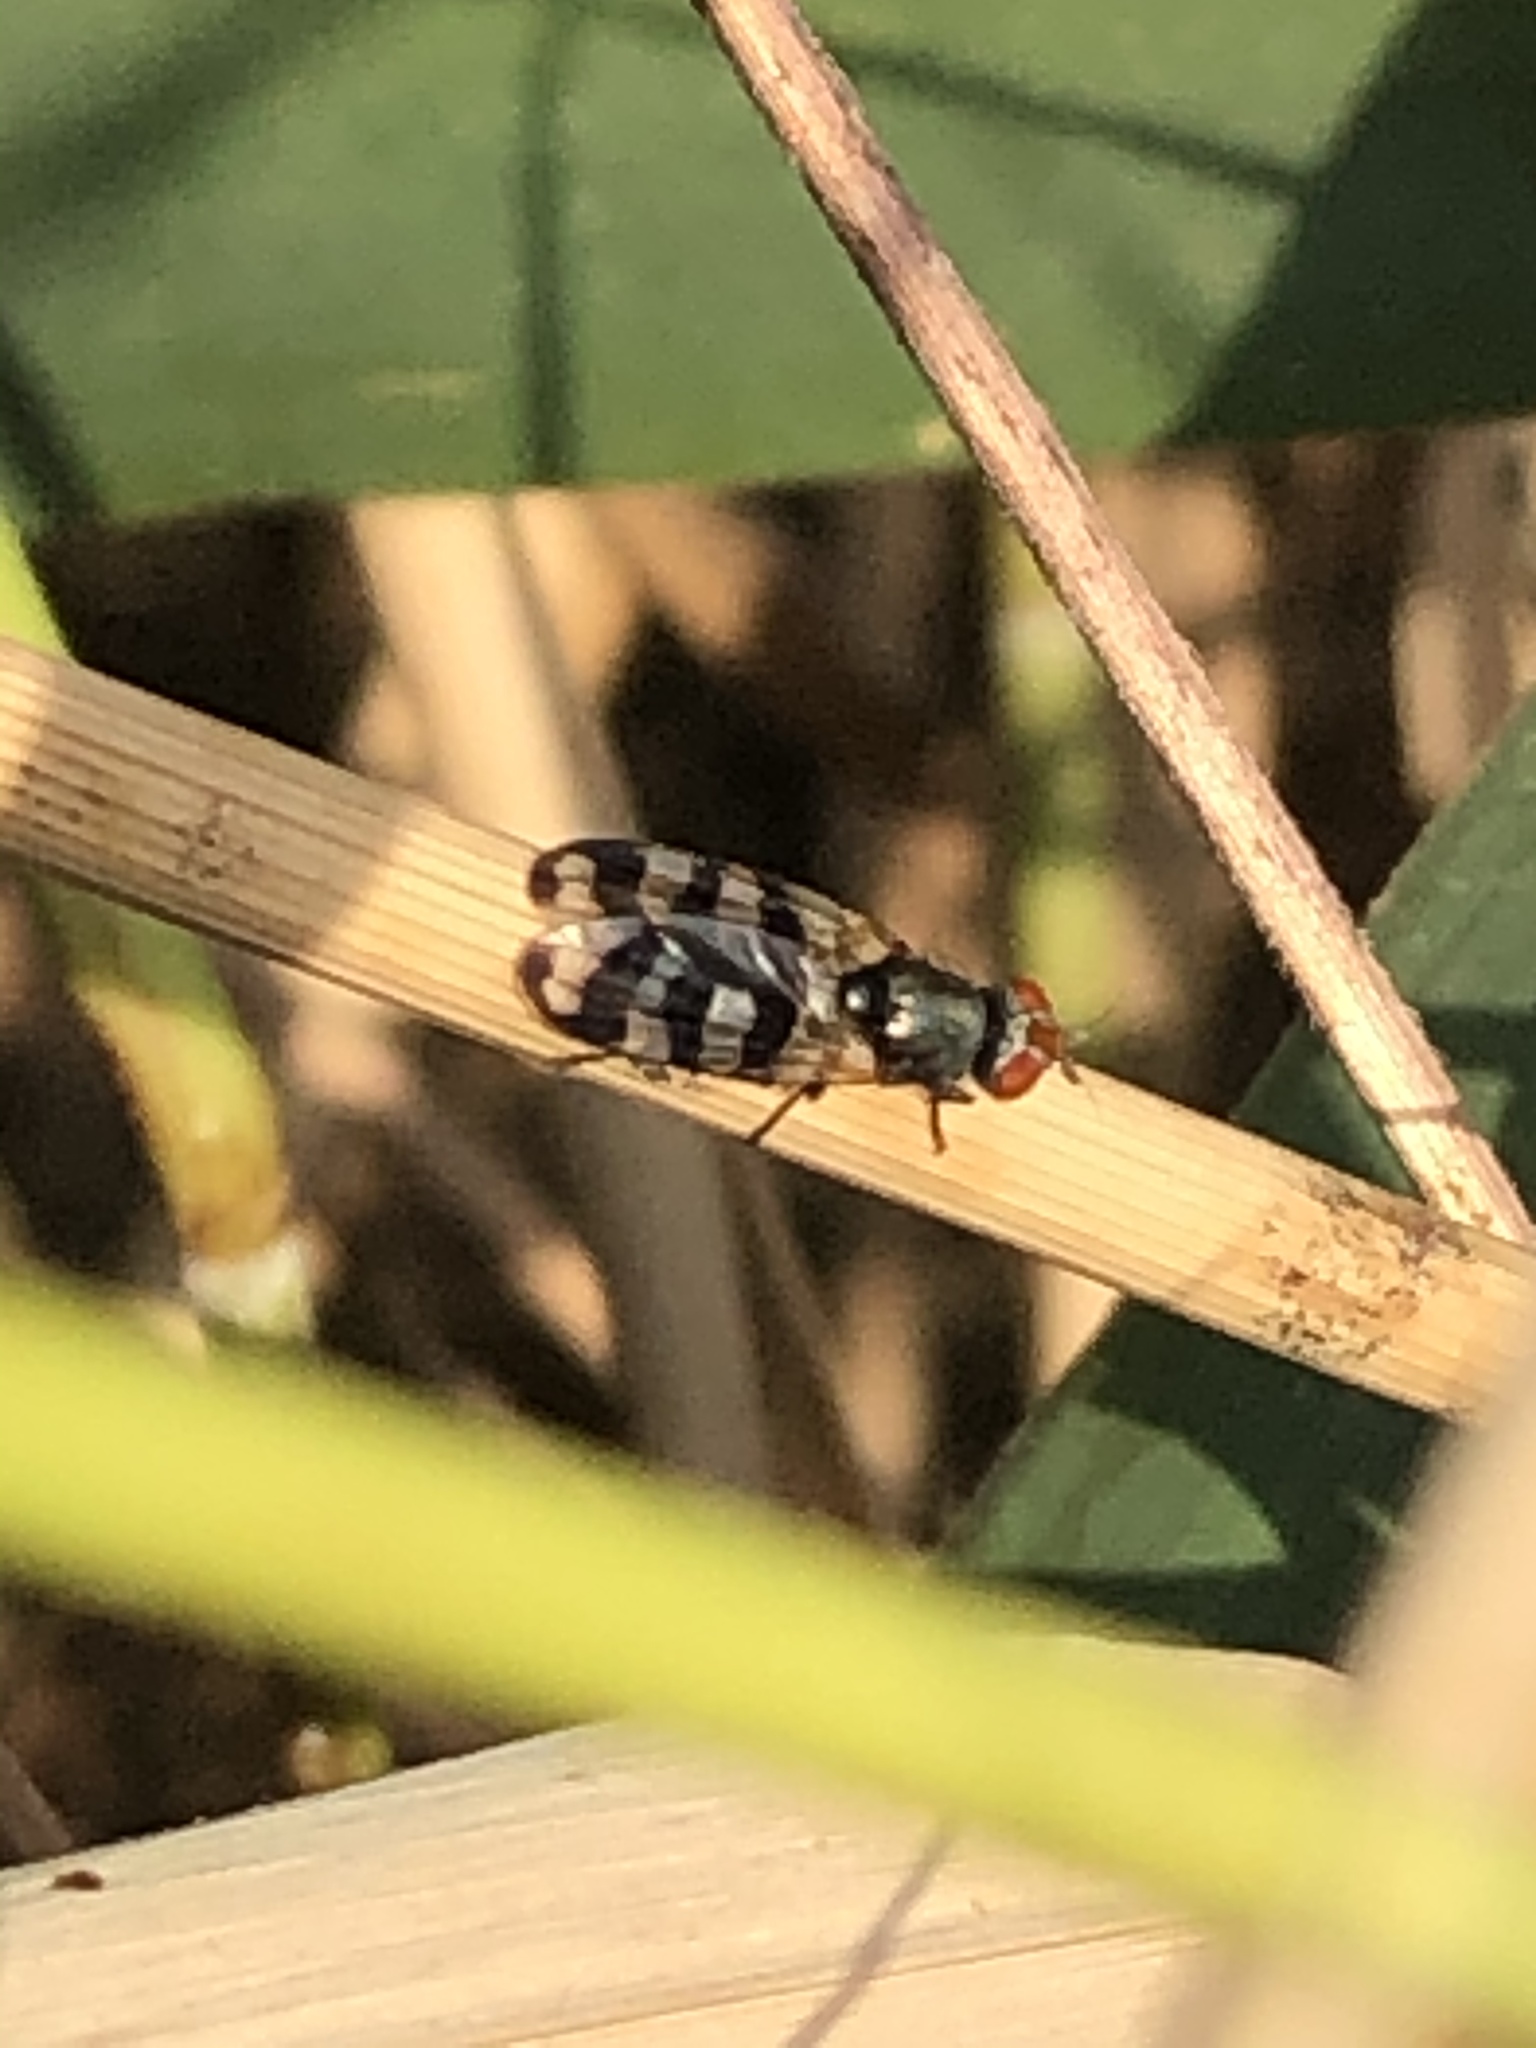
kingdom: Animalia
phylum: Arthropoda
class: Insecta
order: Diptera
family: Ulidiidae
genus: Ceroxys
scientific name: Ceroxys urticae
